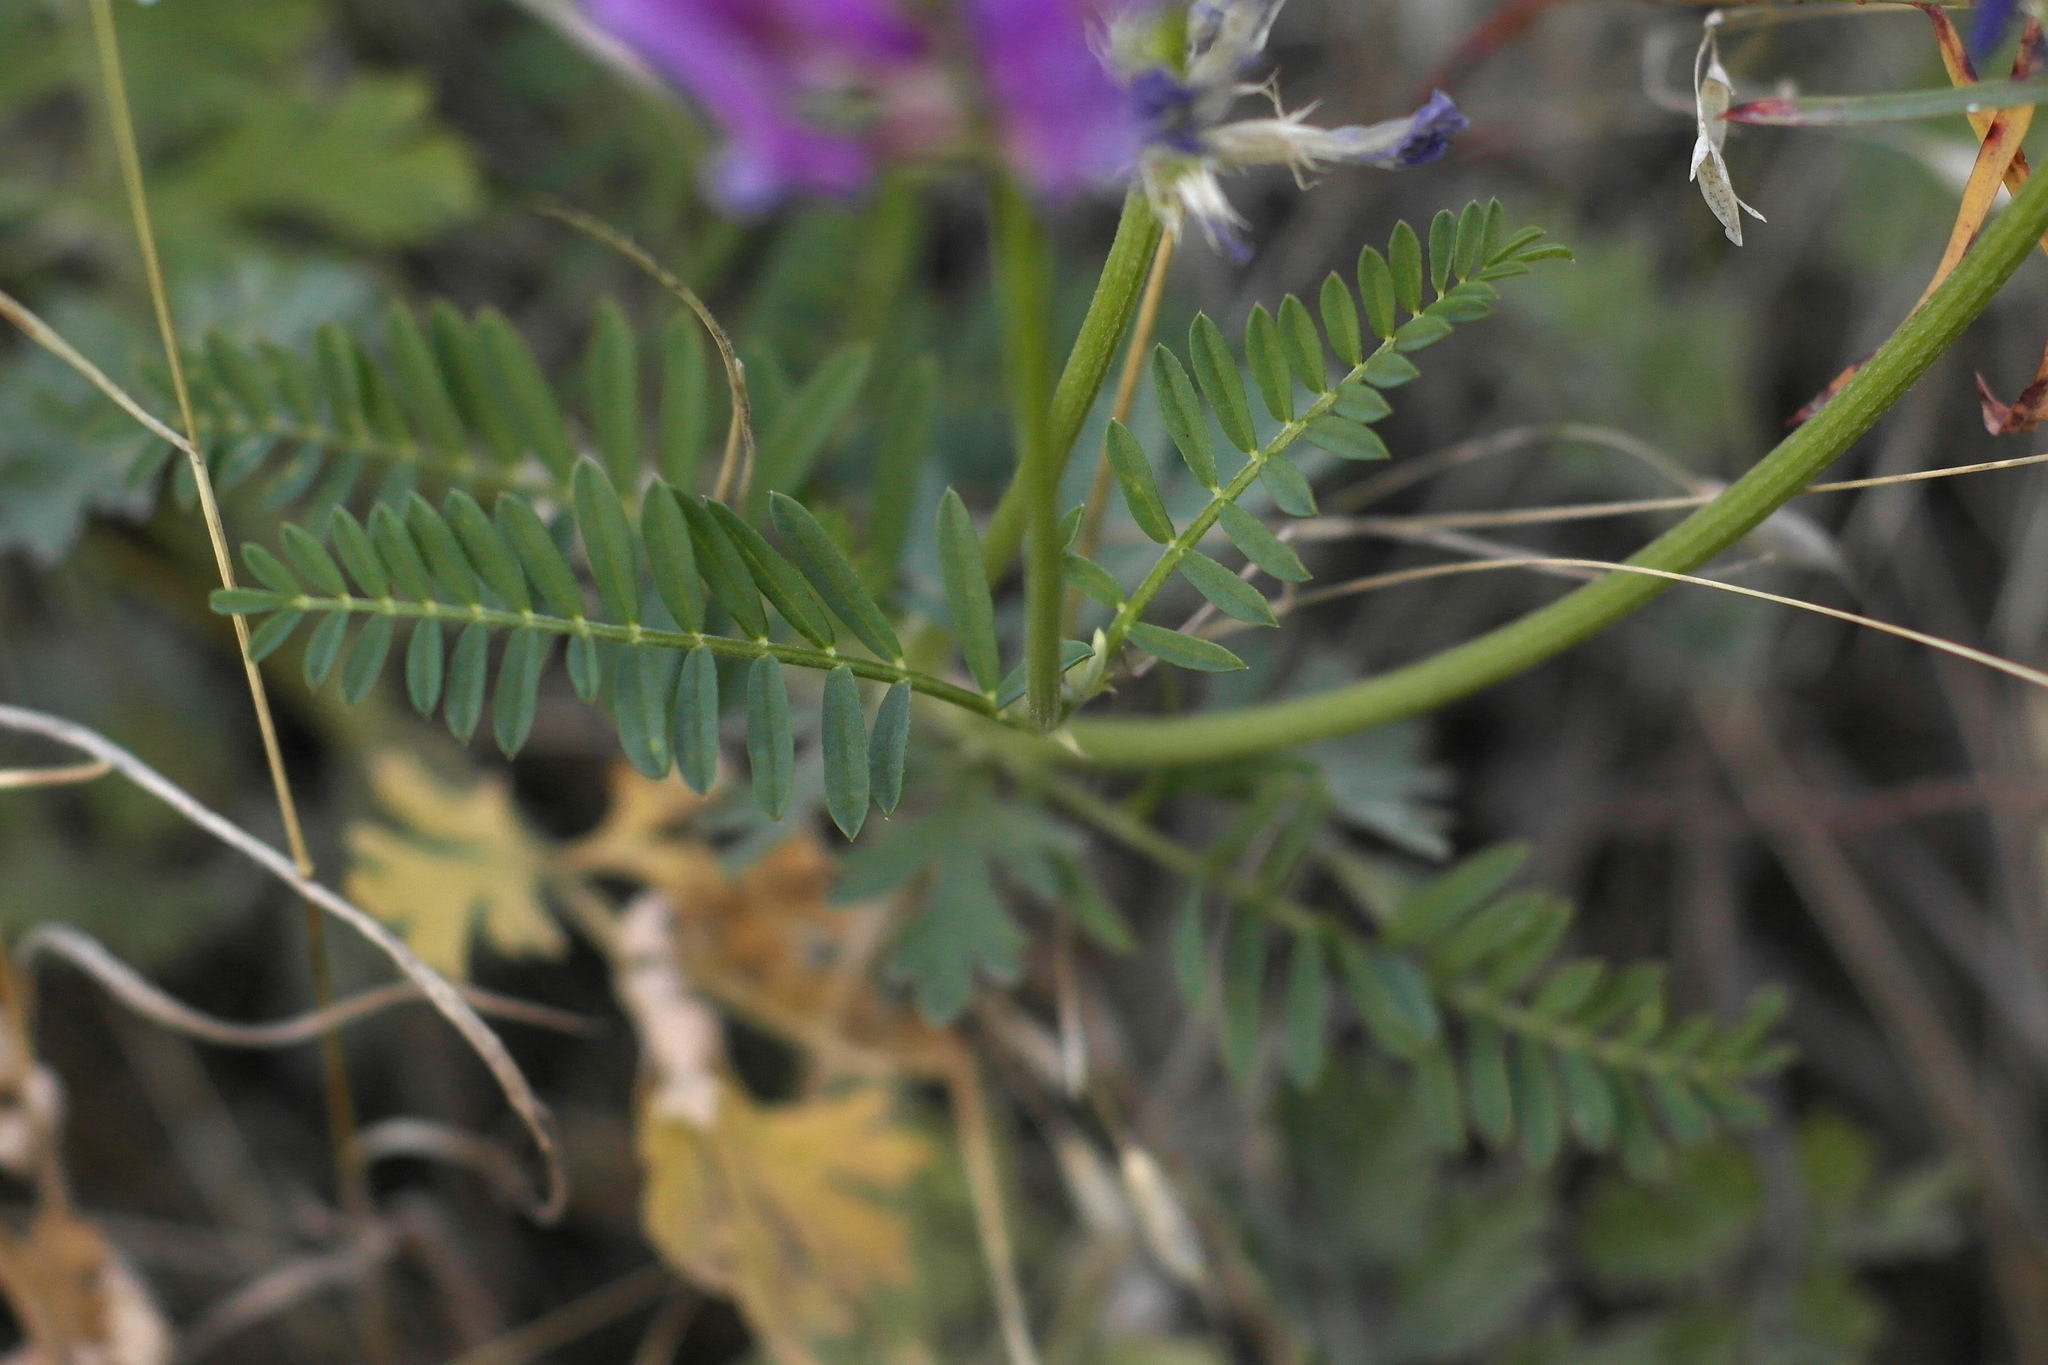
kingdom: Plantae
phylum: Tracheophyta
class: Magnoliopsida
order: Fabales
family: Fabaceae
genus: Astragalus
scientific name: Astragalus onobrychis
